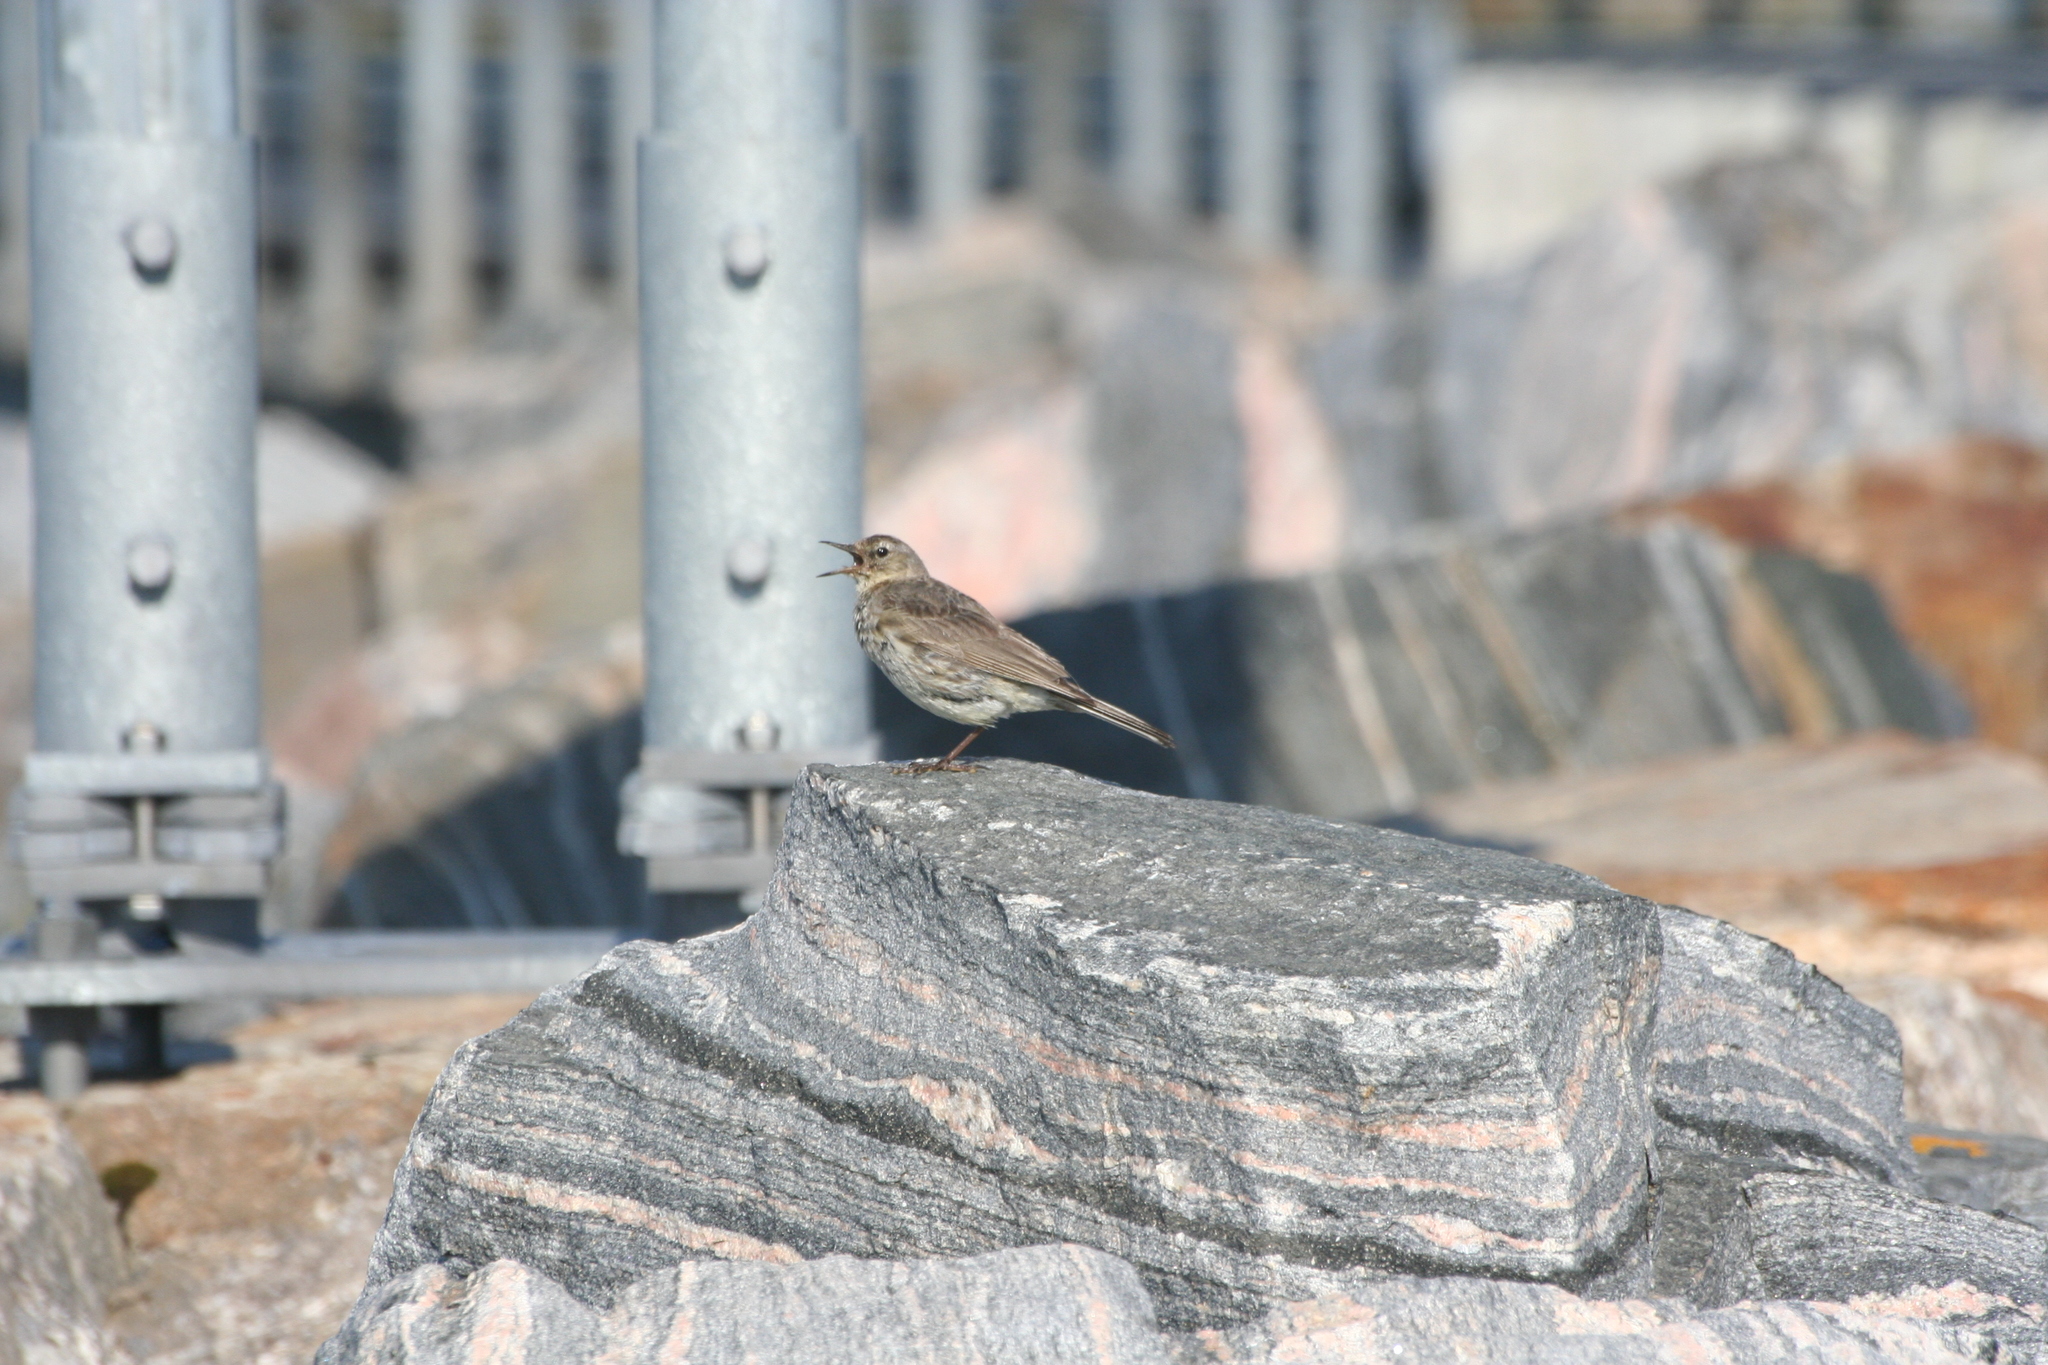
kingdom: Animalia
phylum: Chordata
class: Aves
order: Passeriformes
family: Motacillidae
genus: Anthus
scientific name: Anthus petrosus
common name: Eurasian rock pipit
